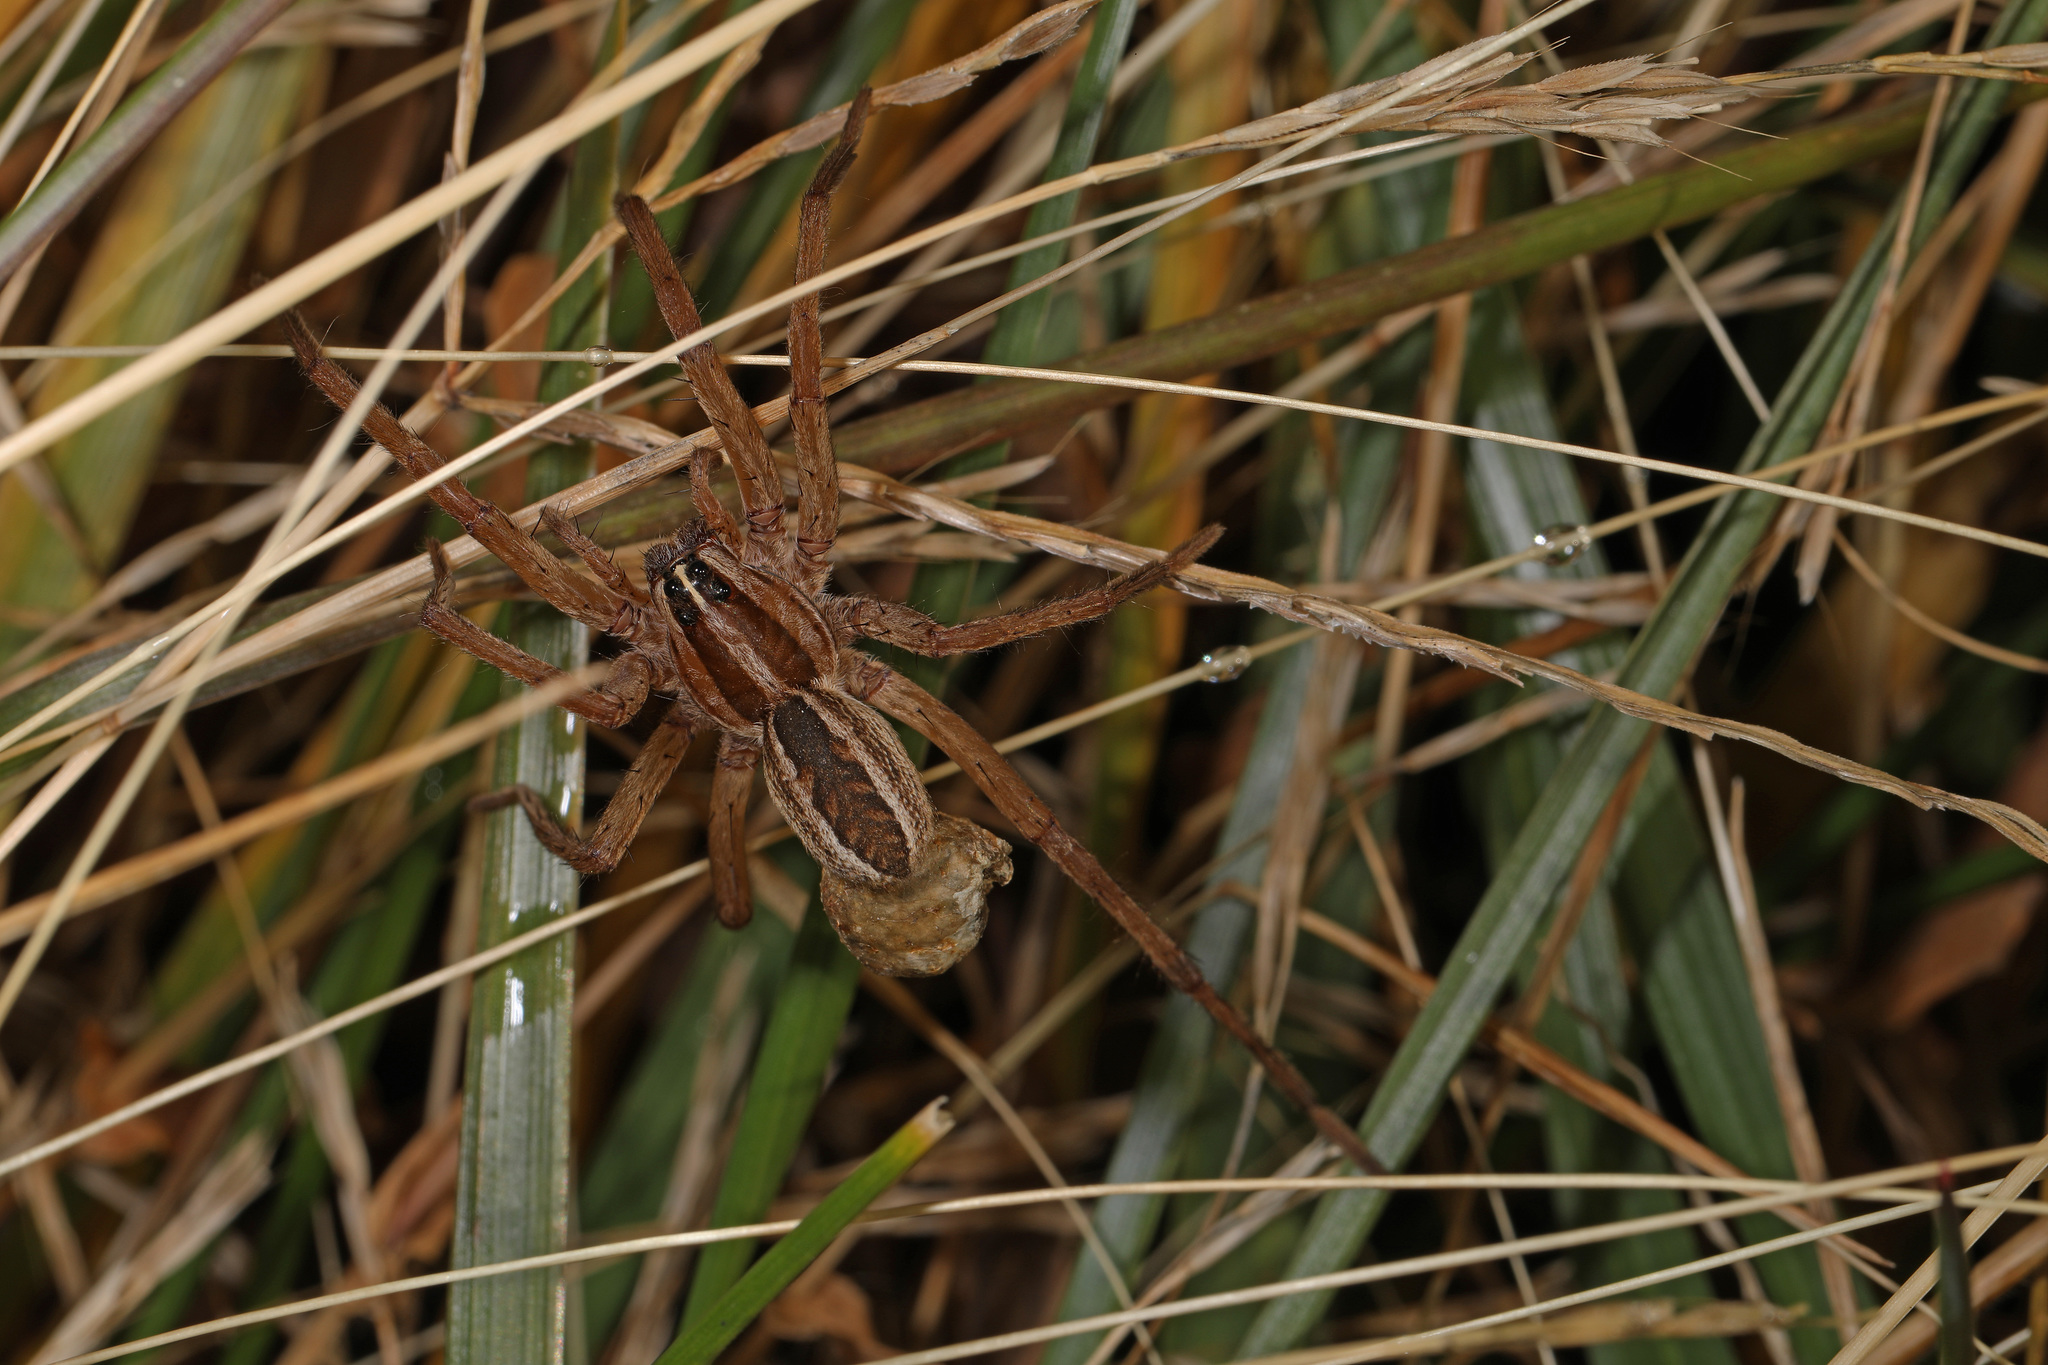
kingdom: Animalia
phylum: Arthropoda
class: Arachnida
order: Araneae
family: Lycosidae
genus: Rabidosa
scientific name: Rabidosa rabida
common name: Rabid wolf spider
